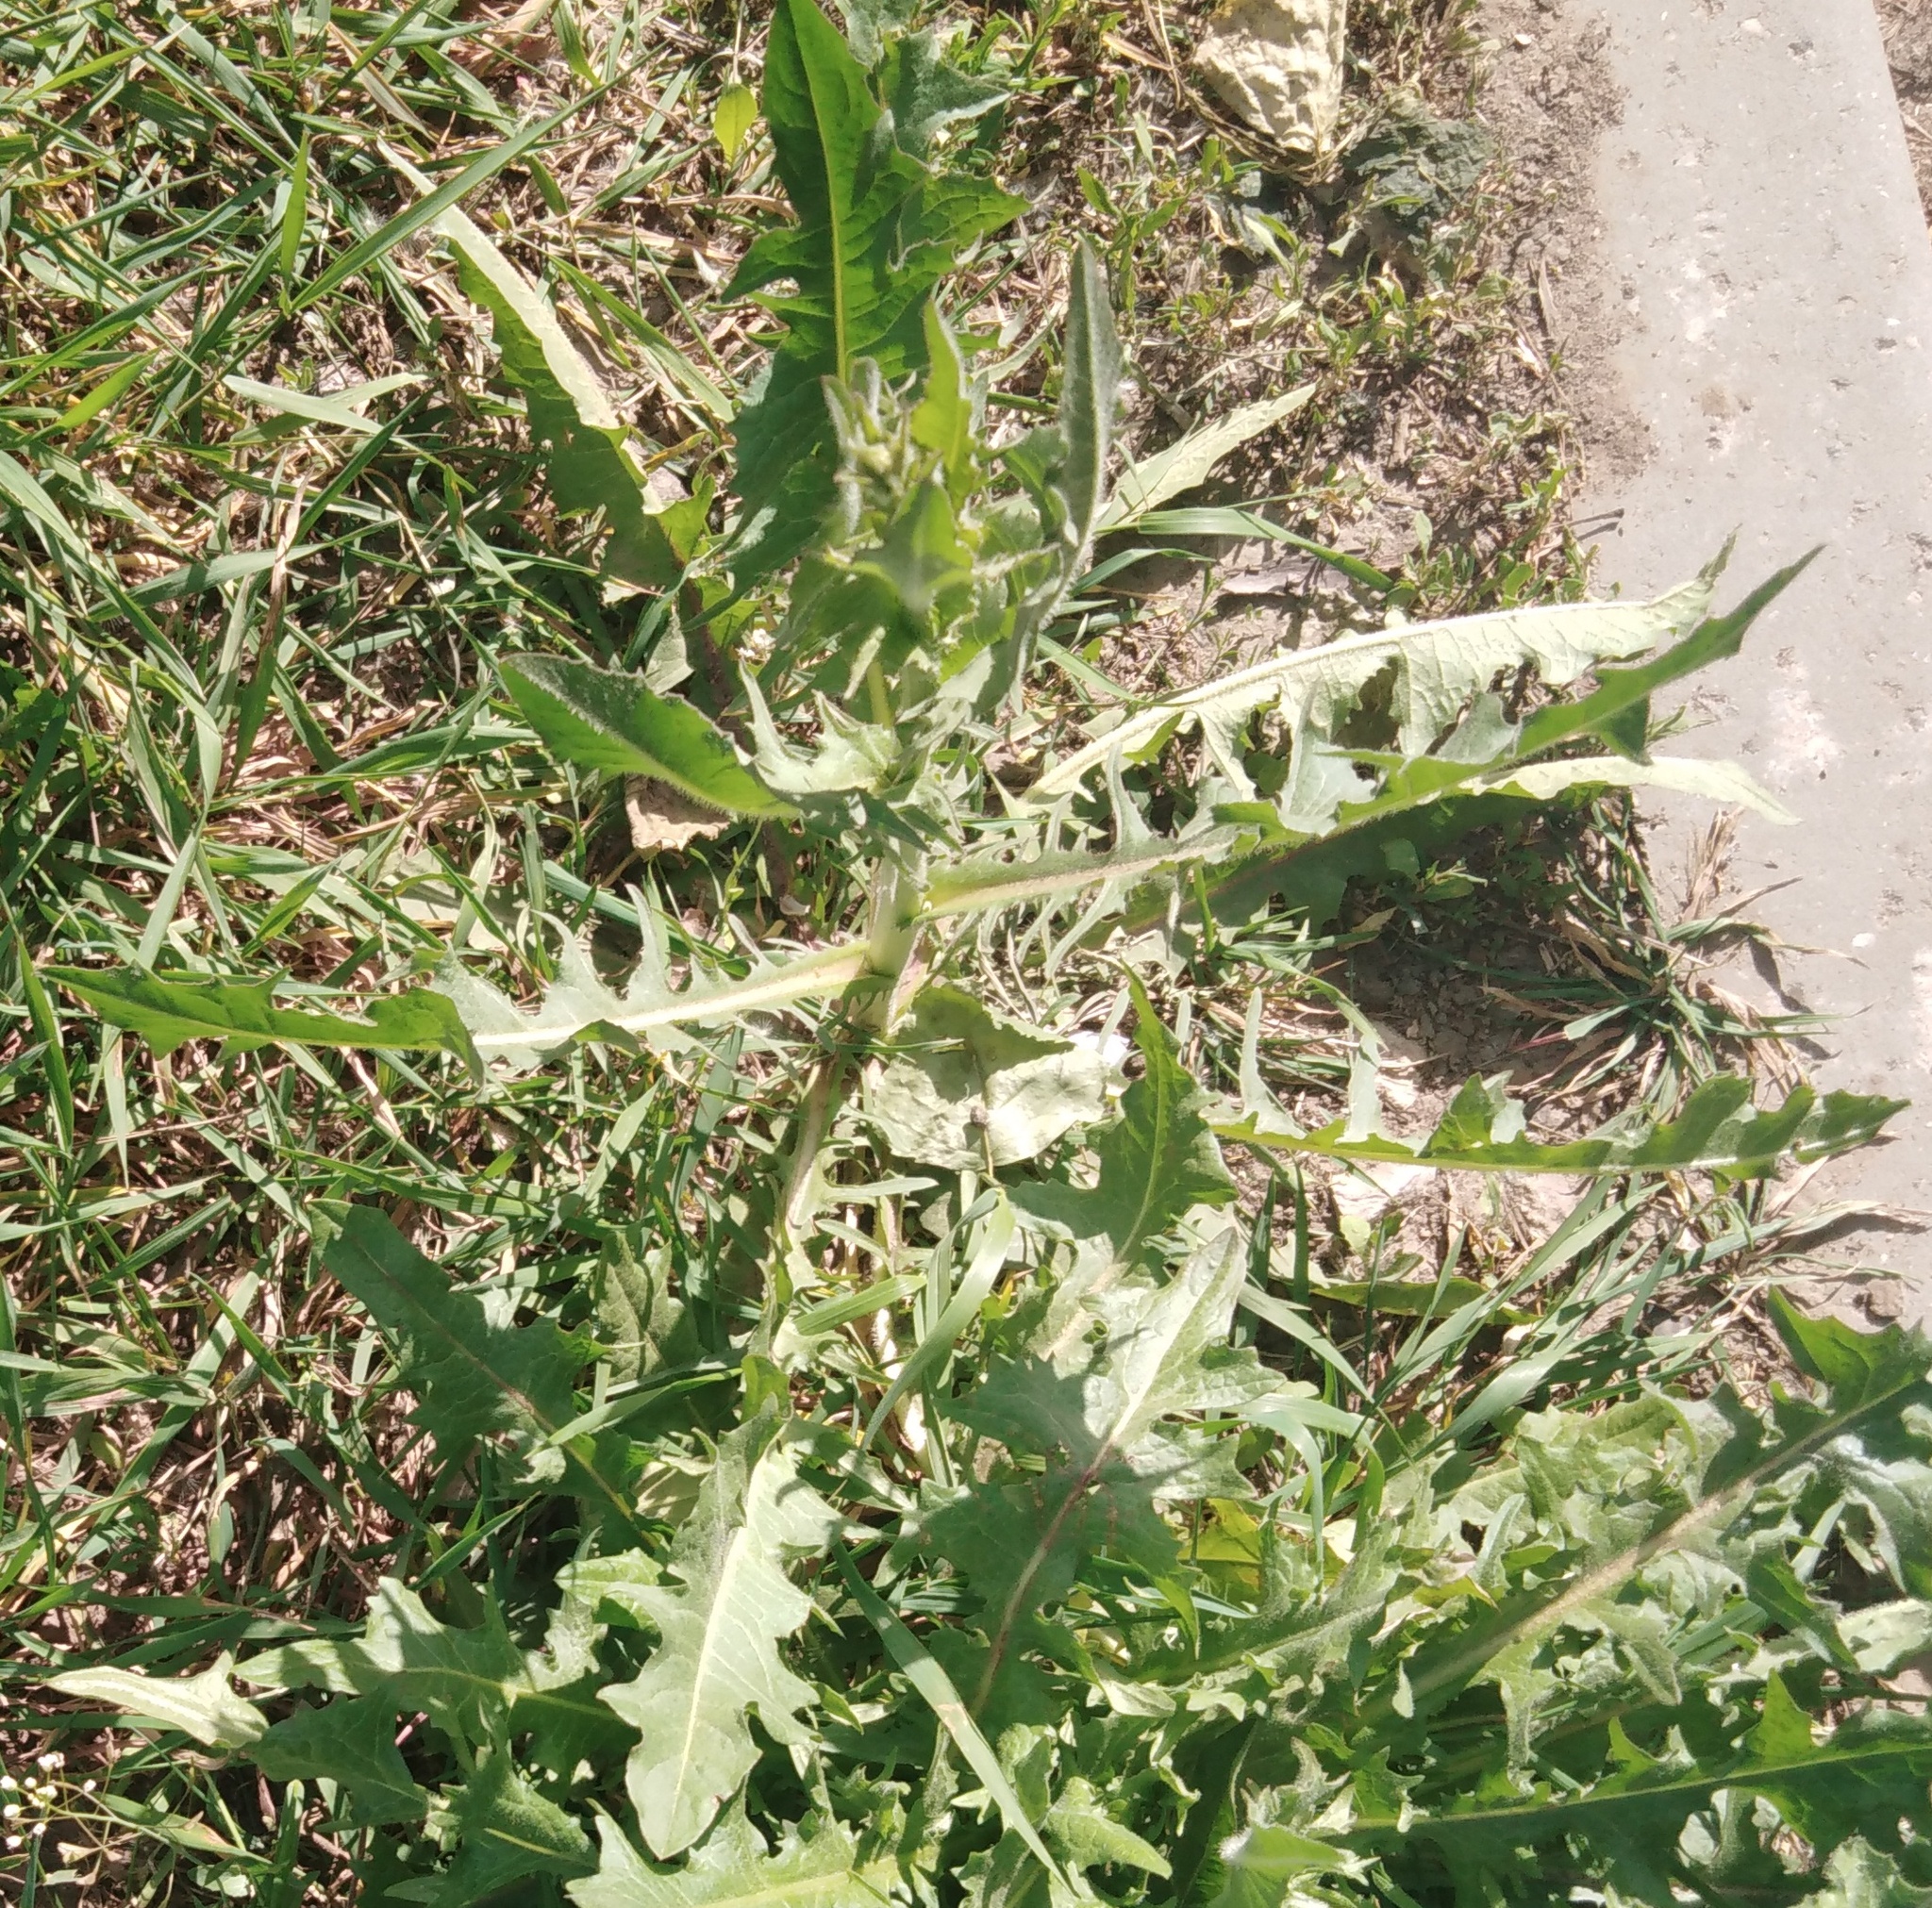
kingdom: Plantae
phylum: Tracheophyta
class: Magnoliopsida
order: Asterales
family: Asteraceae
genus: Cichorium
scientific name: Cichorium intybus
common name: Chicory
